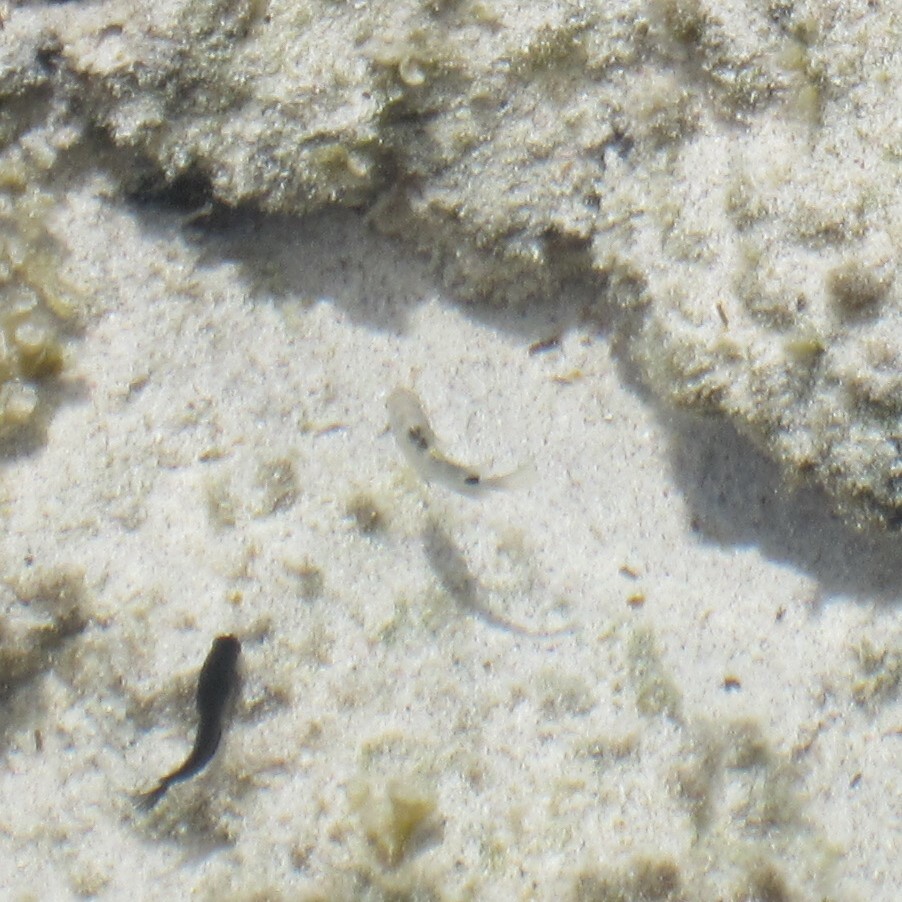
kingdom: Animalia
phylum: Chordata
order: Perciformes
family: Pomacentridae
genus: Abudefduf
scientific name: Abudefduf sordidus
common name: Blackspot sergeant
